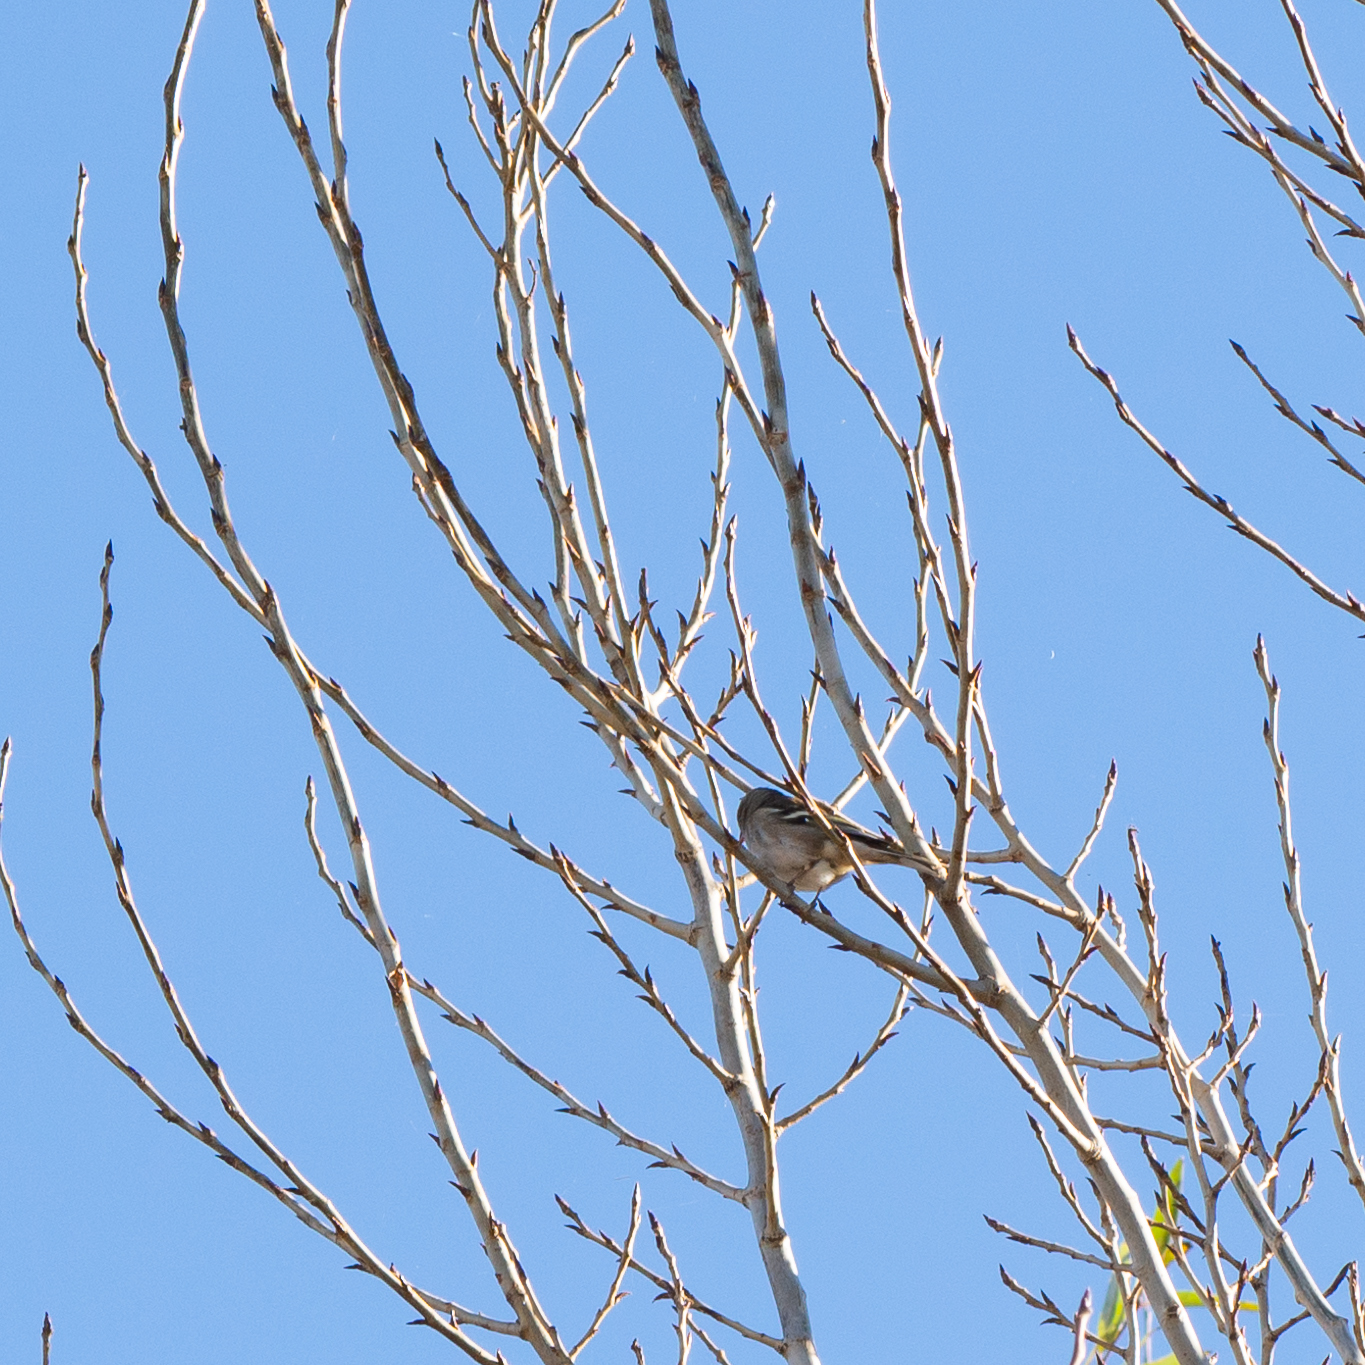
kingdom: Animalia
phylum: Chordata
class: Aves
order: Passeriformes
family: Fringillidae
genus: Fringilla
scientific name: Fringilla coelebs
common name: Common chaffinch
